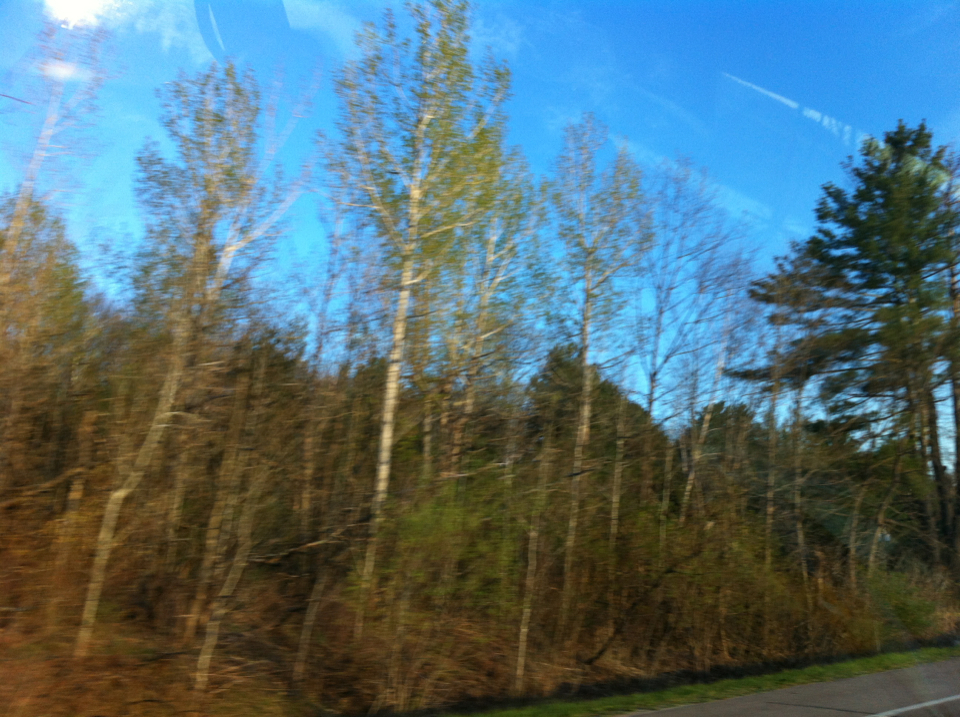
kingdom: Plantae
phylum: Tracheophyta
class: Magnoliopsida
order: Malpighiales
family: Salicaceae
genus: Populus
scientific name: Populus tremuloides
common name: Quaking aspen
